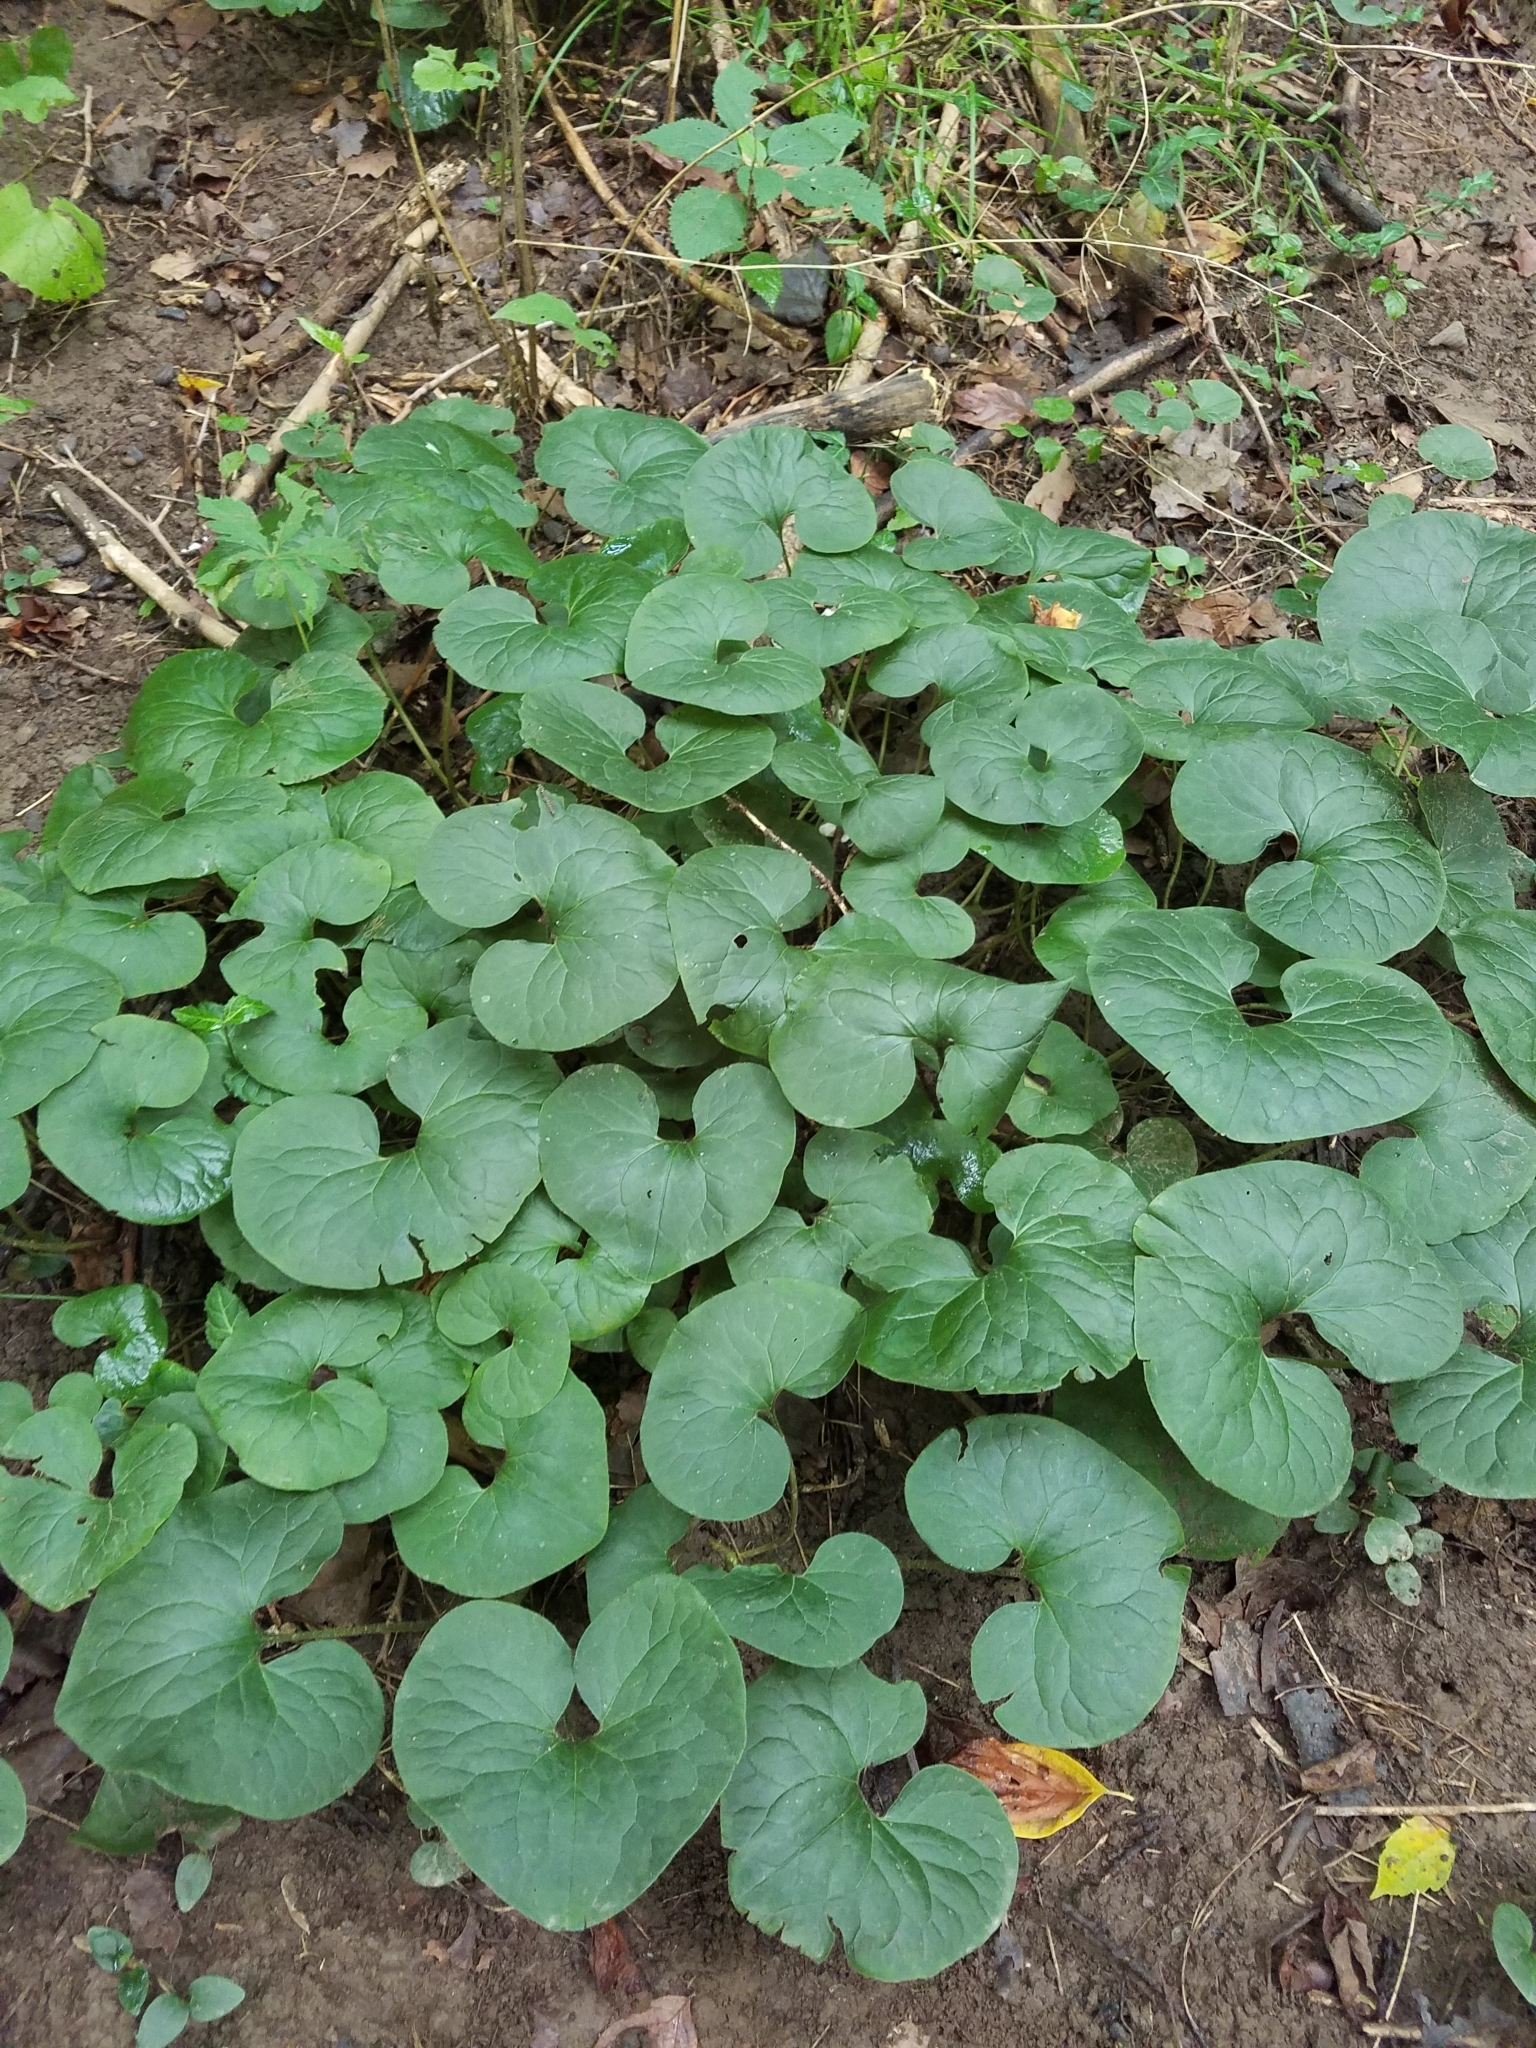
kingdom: Plantae
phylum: Tracheophyta
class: Magnoliopsida
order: Piperales
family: Aristolochiaceae
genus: Asarum
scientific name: Asarum canadense
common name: Wild ginger
